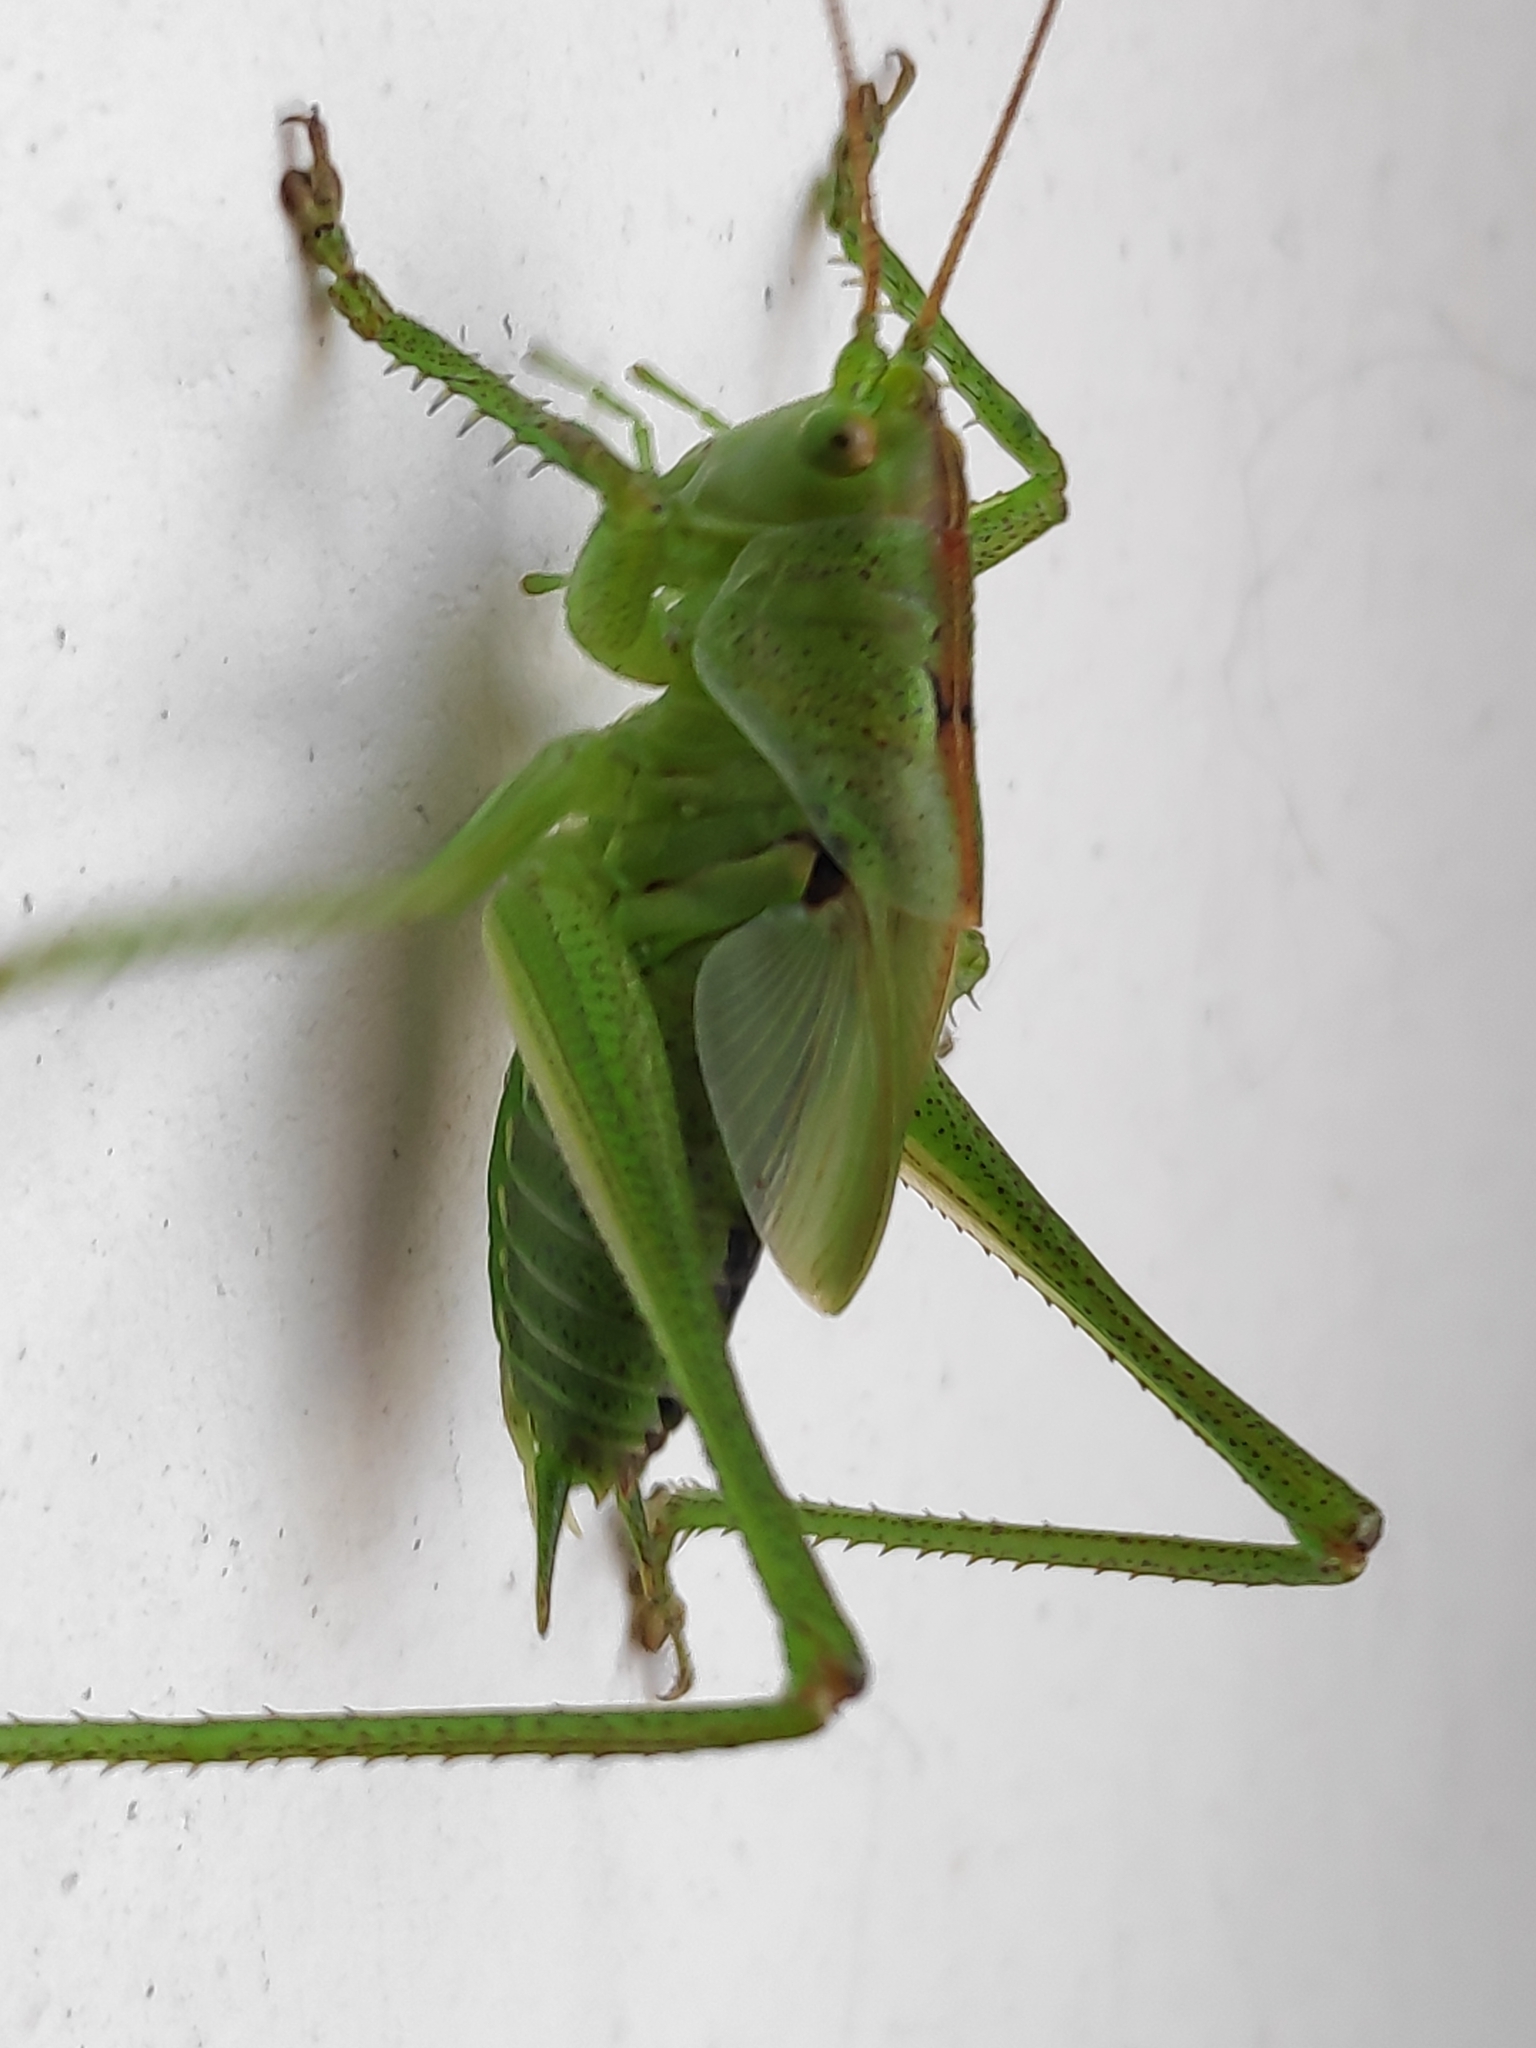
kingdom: Animalia
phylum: Arthropoda
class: Insecta
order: Orthoptera
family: Tettigoniidae
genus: Tettigonia
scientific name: Tettigonia viridissima
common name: Great green bush-cricket
